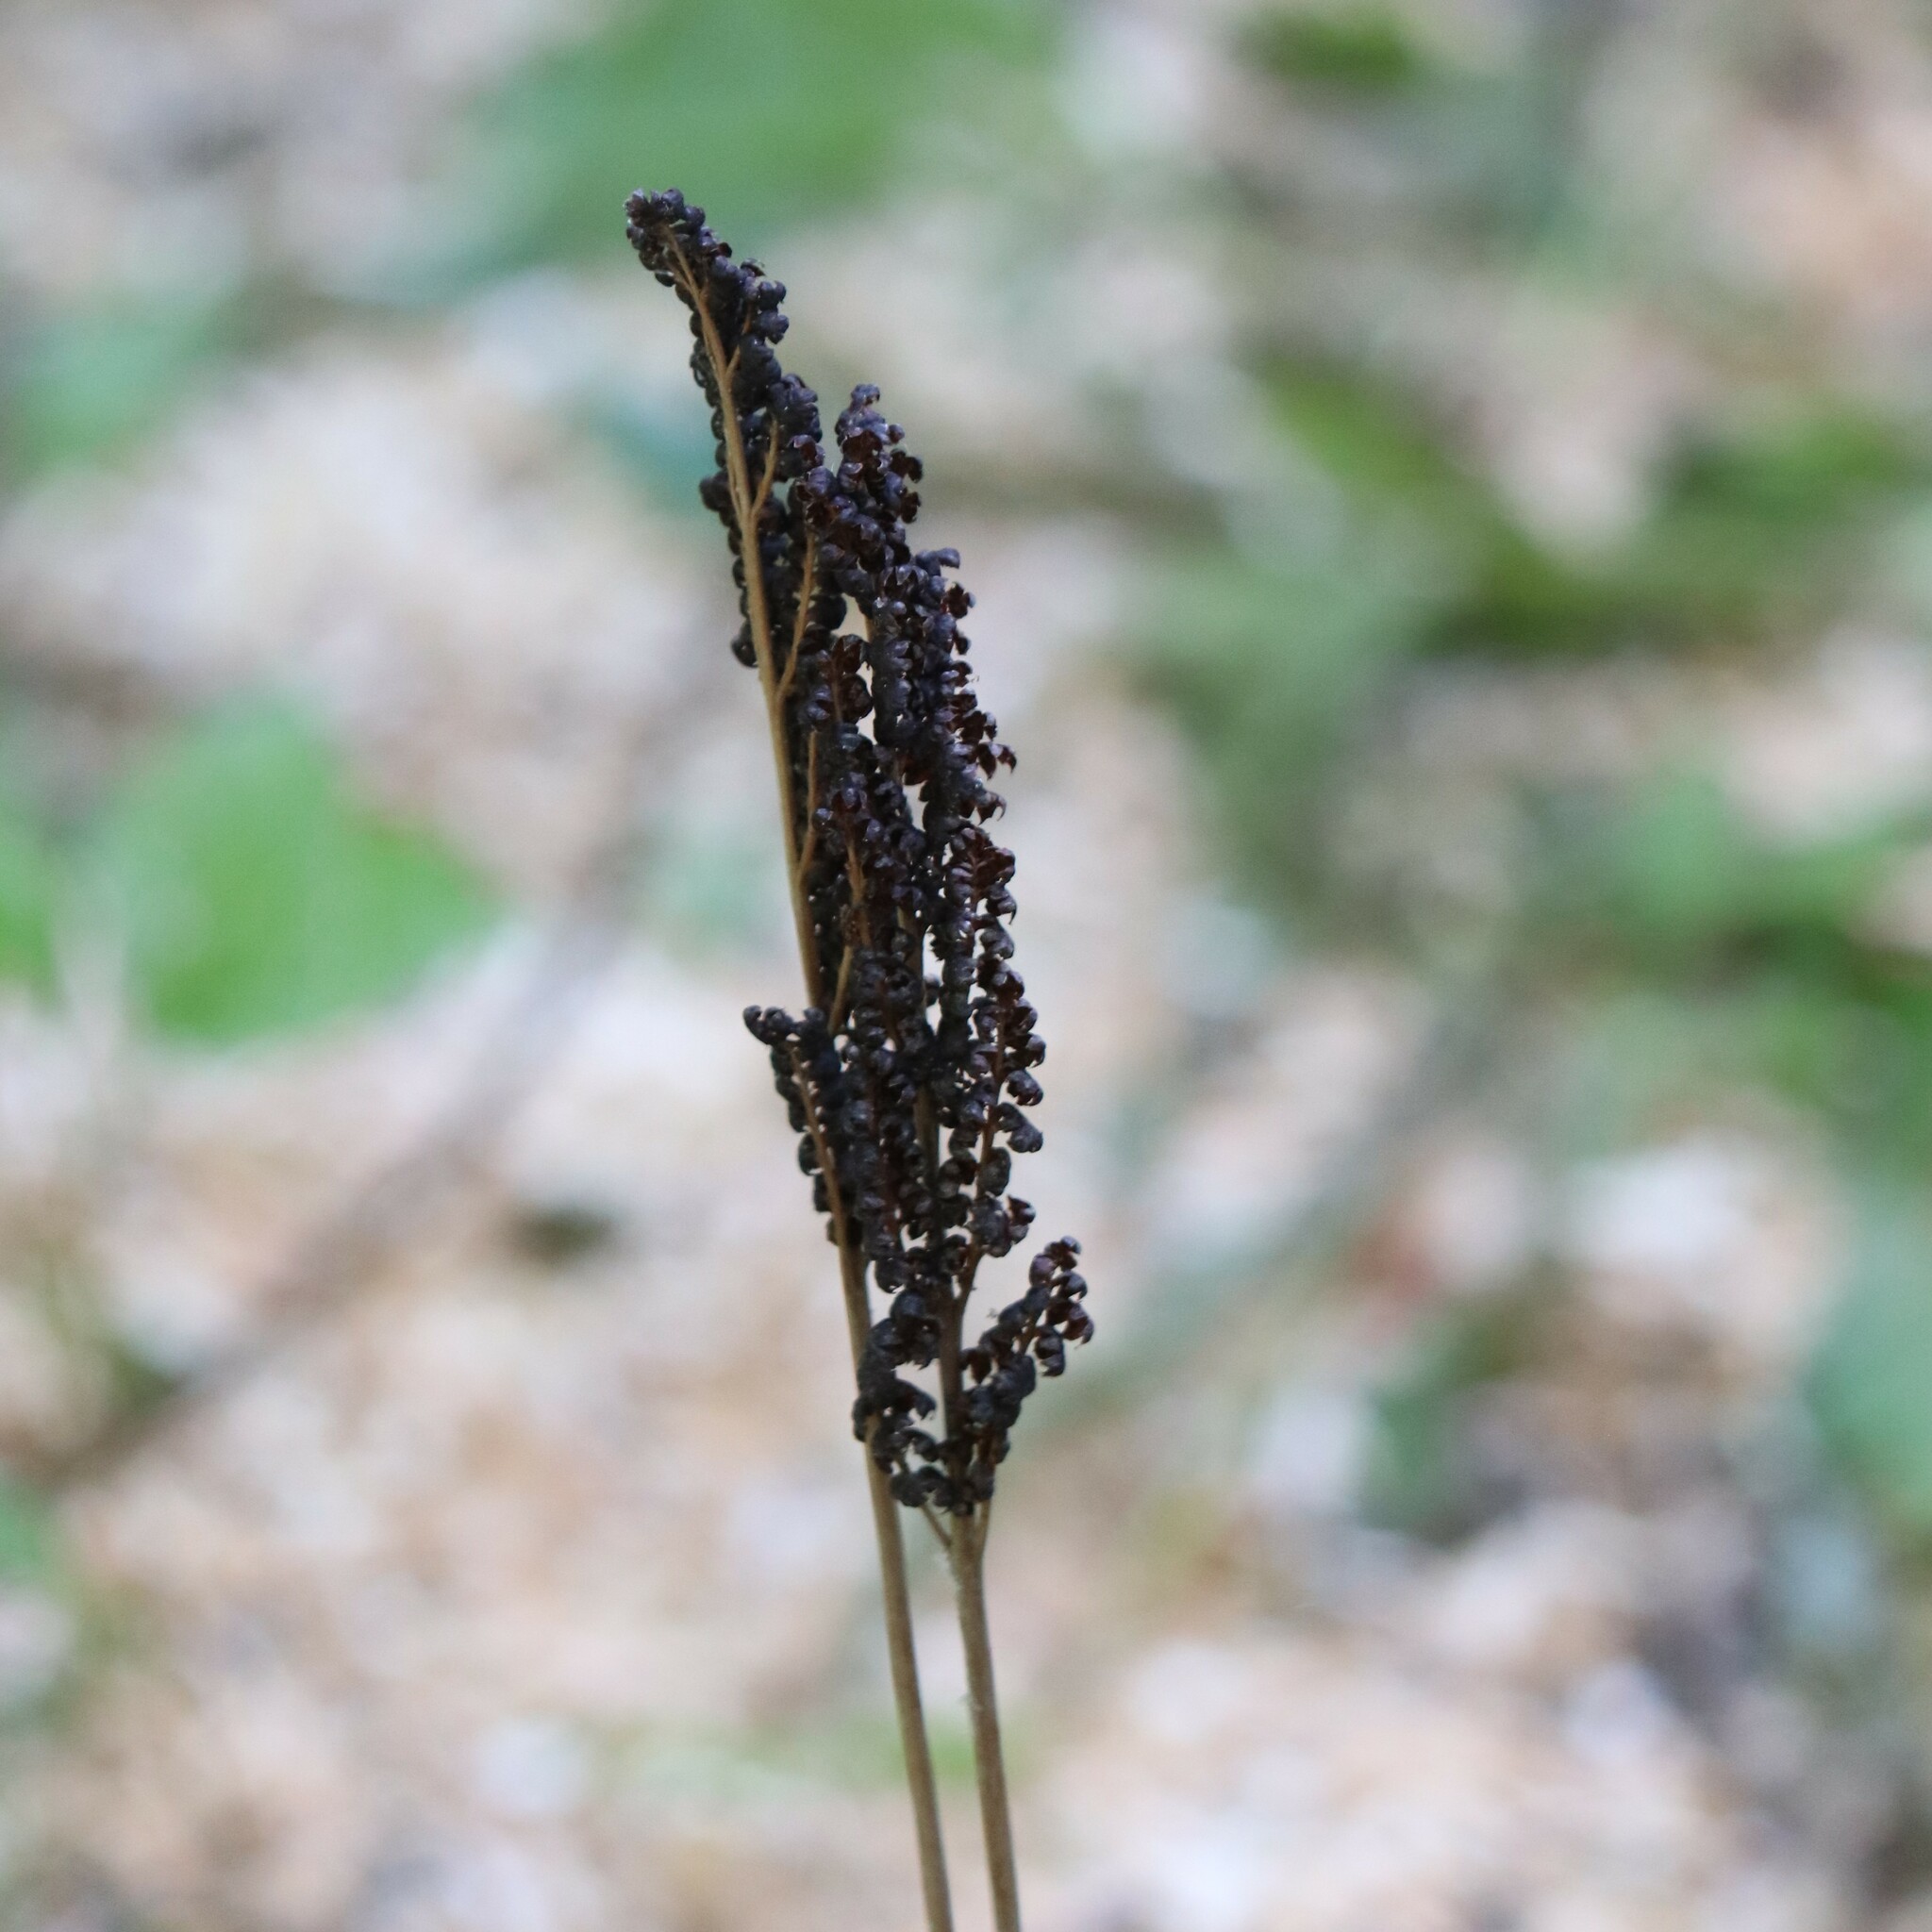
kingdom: Plantae
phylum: Tracheophyta
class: Polypodiopsida
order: Polypodiales
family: Onocleaceae
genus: Onoclea
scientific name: Onoclea sensibilis
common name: Sensitive fern
